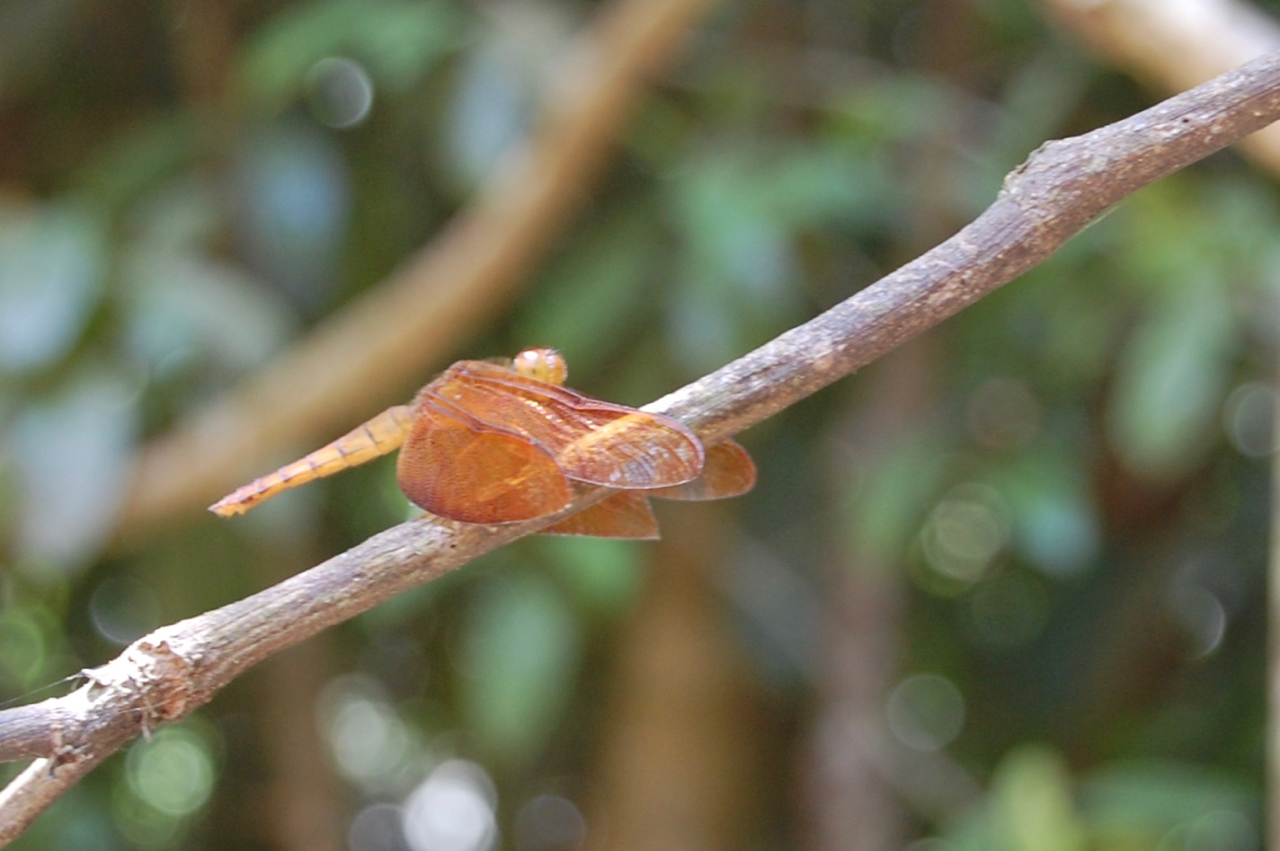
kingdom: Animalia
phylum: Arthropoda
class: Insecta
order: Odonata
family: Libellulidae
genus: Neurothemis
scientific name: Neurothemis fulvia
